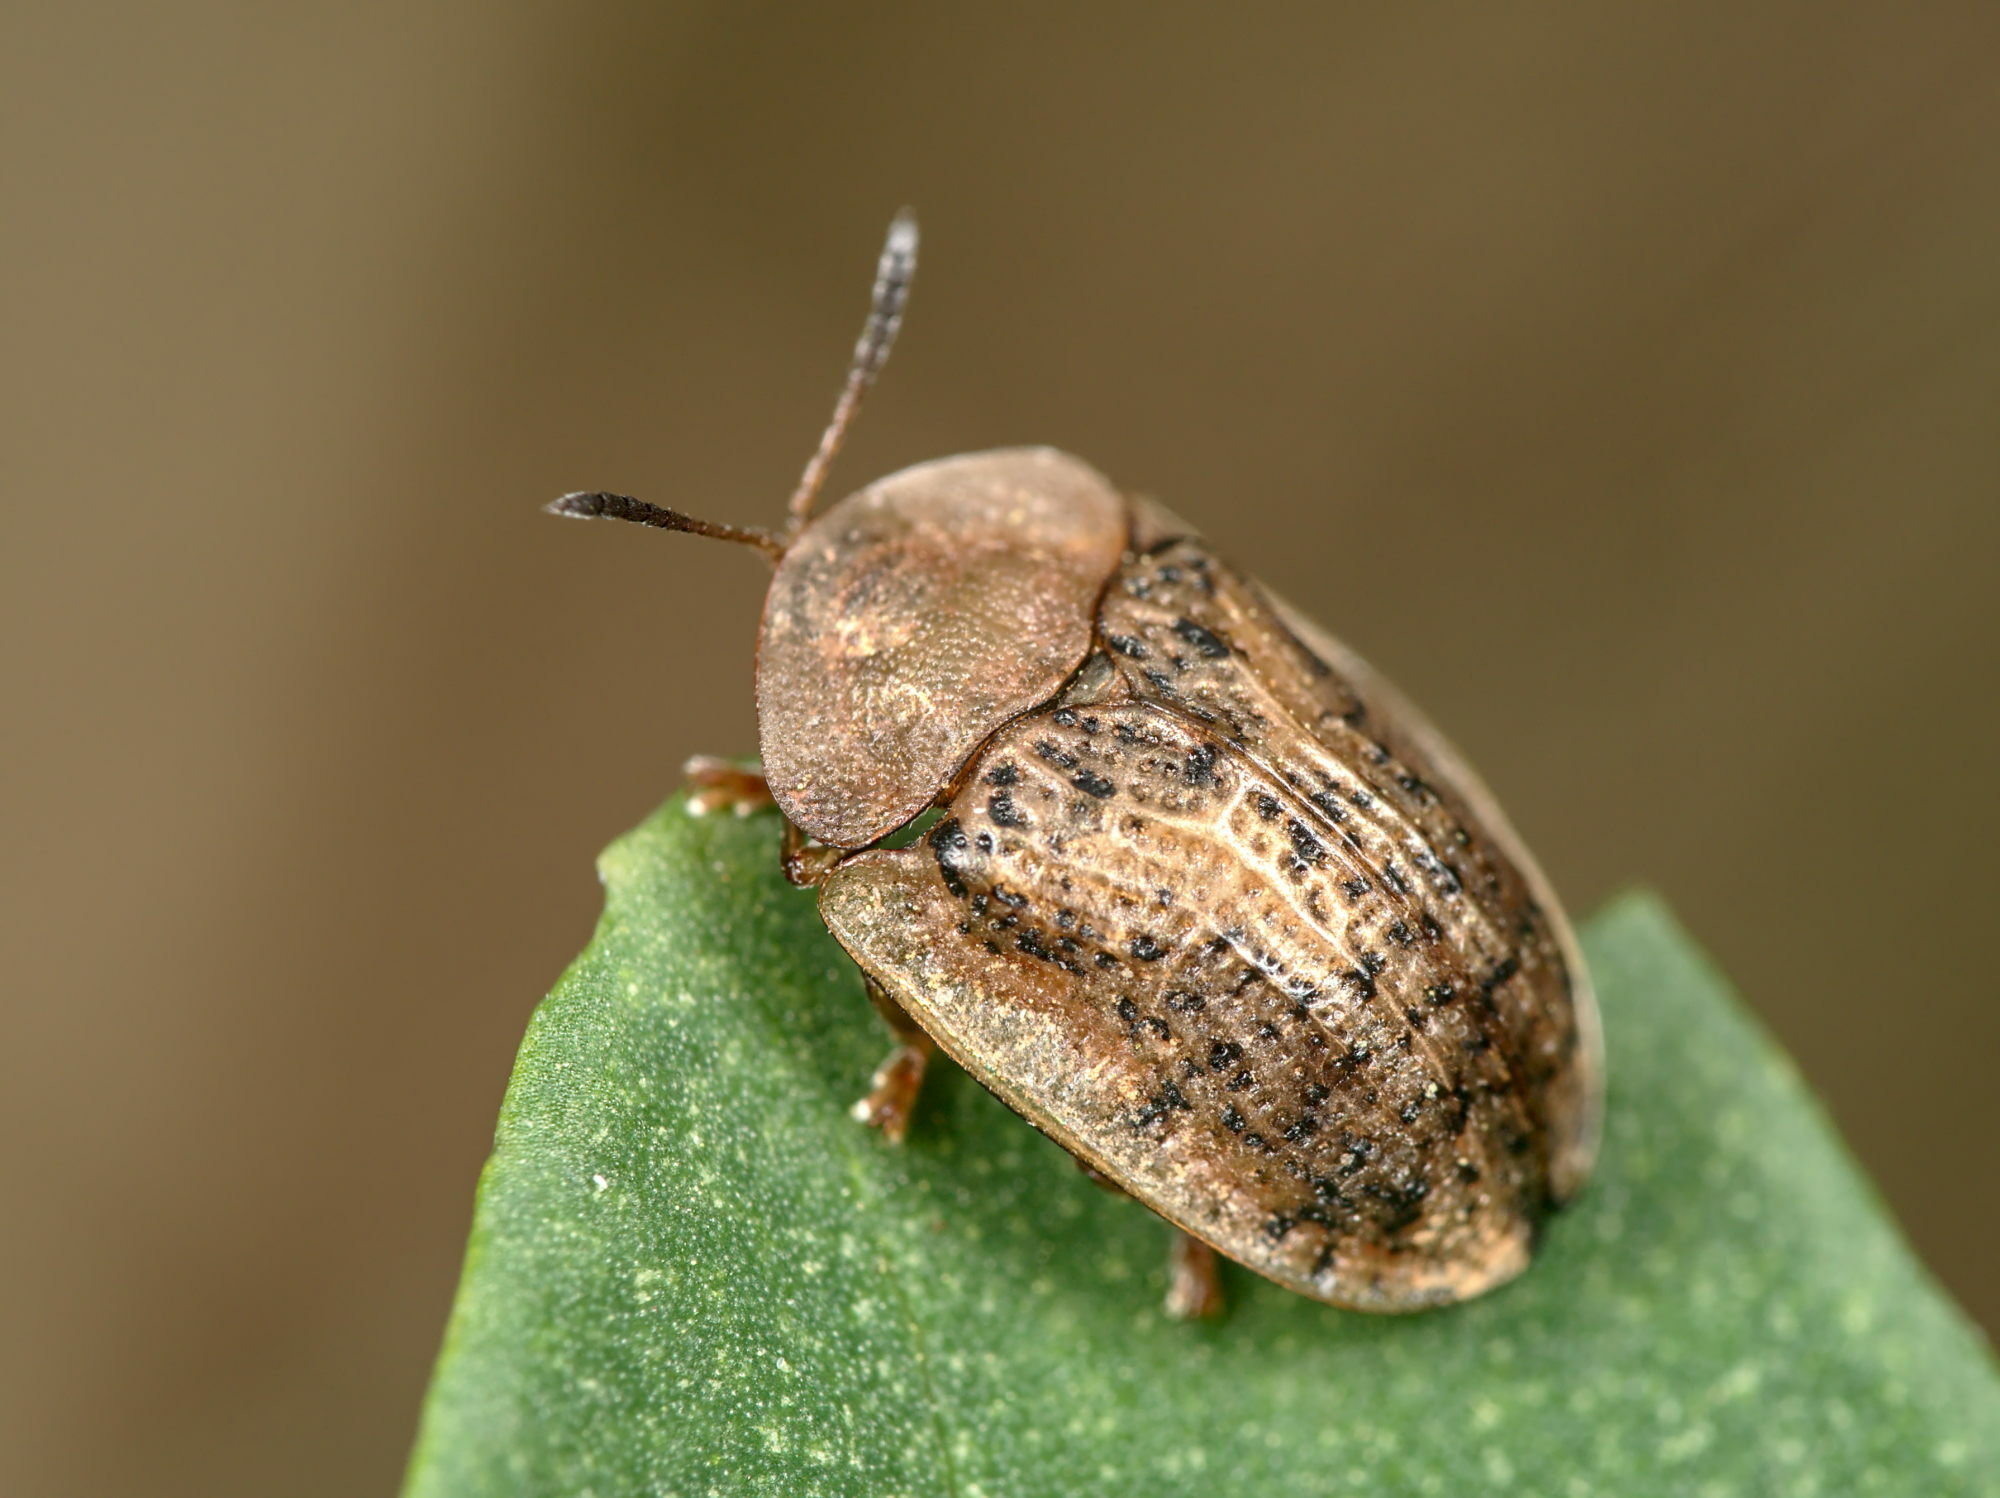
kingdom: Animalia
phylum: Arthropoda
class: Insecta
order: Coleoptera
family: Chrysomelidae
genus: Cassida
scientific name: Cassida nebulosa
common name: Beet tortoise beetle
